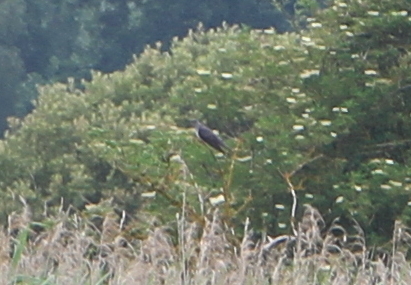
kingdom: Animalia
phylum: Chordata
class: Aves
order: Cuculiformes
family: Cuculidae
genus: Cuculus
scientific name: Cuculus canorus
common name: Common cuckoo
